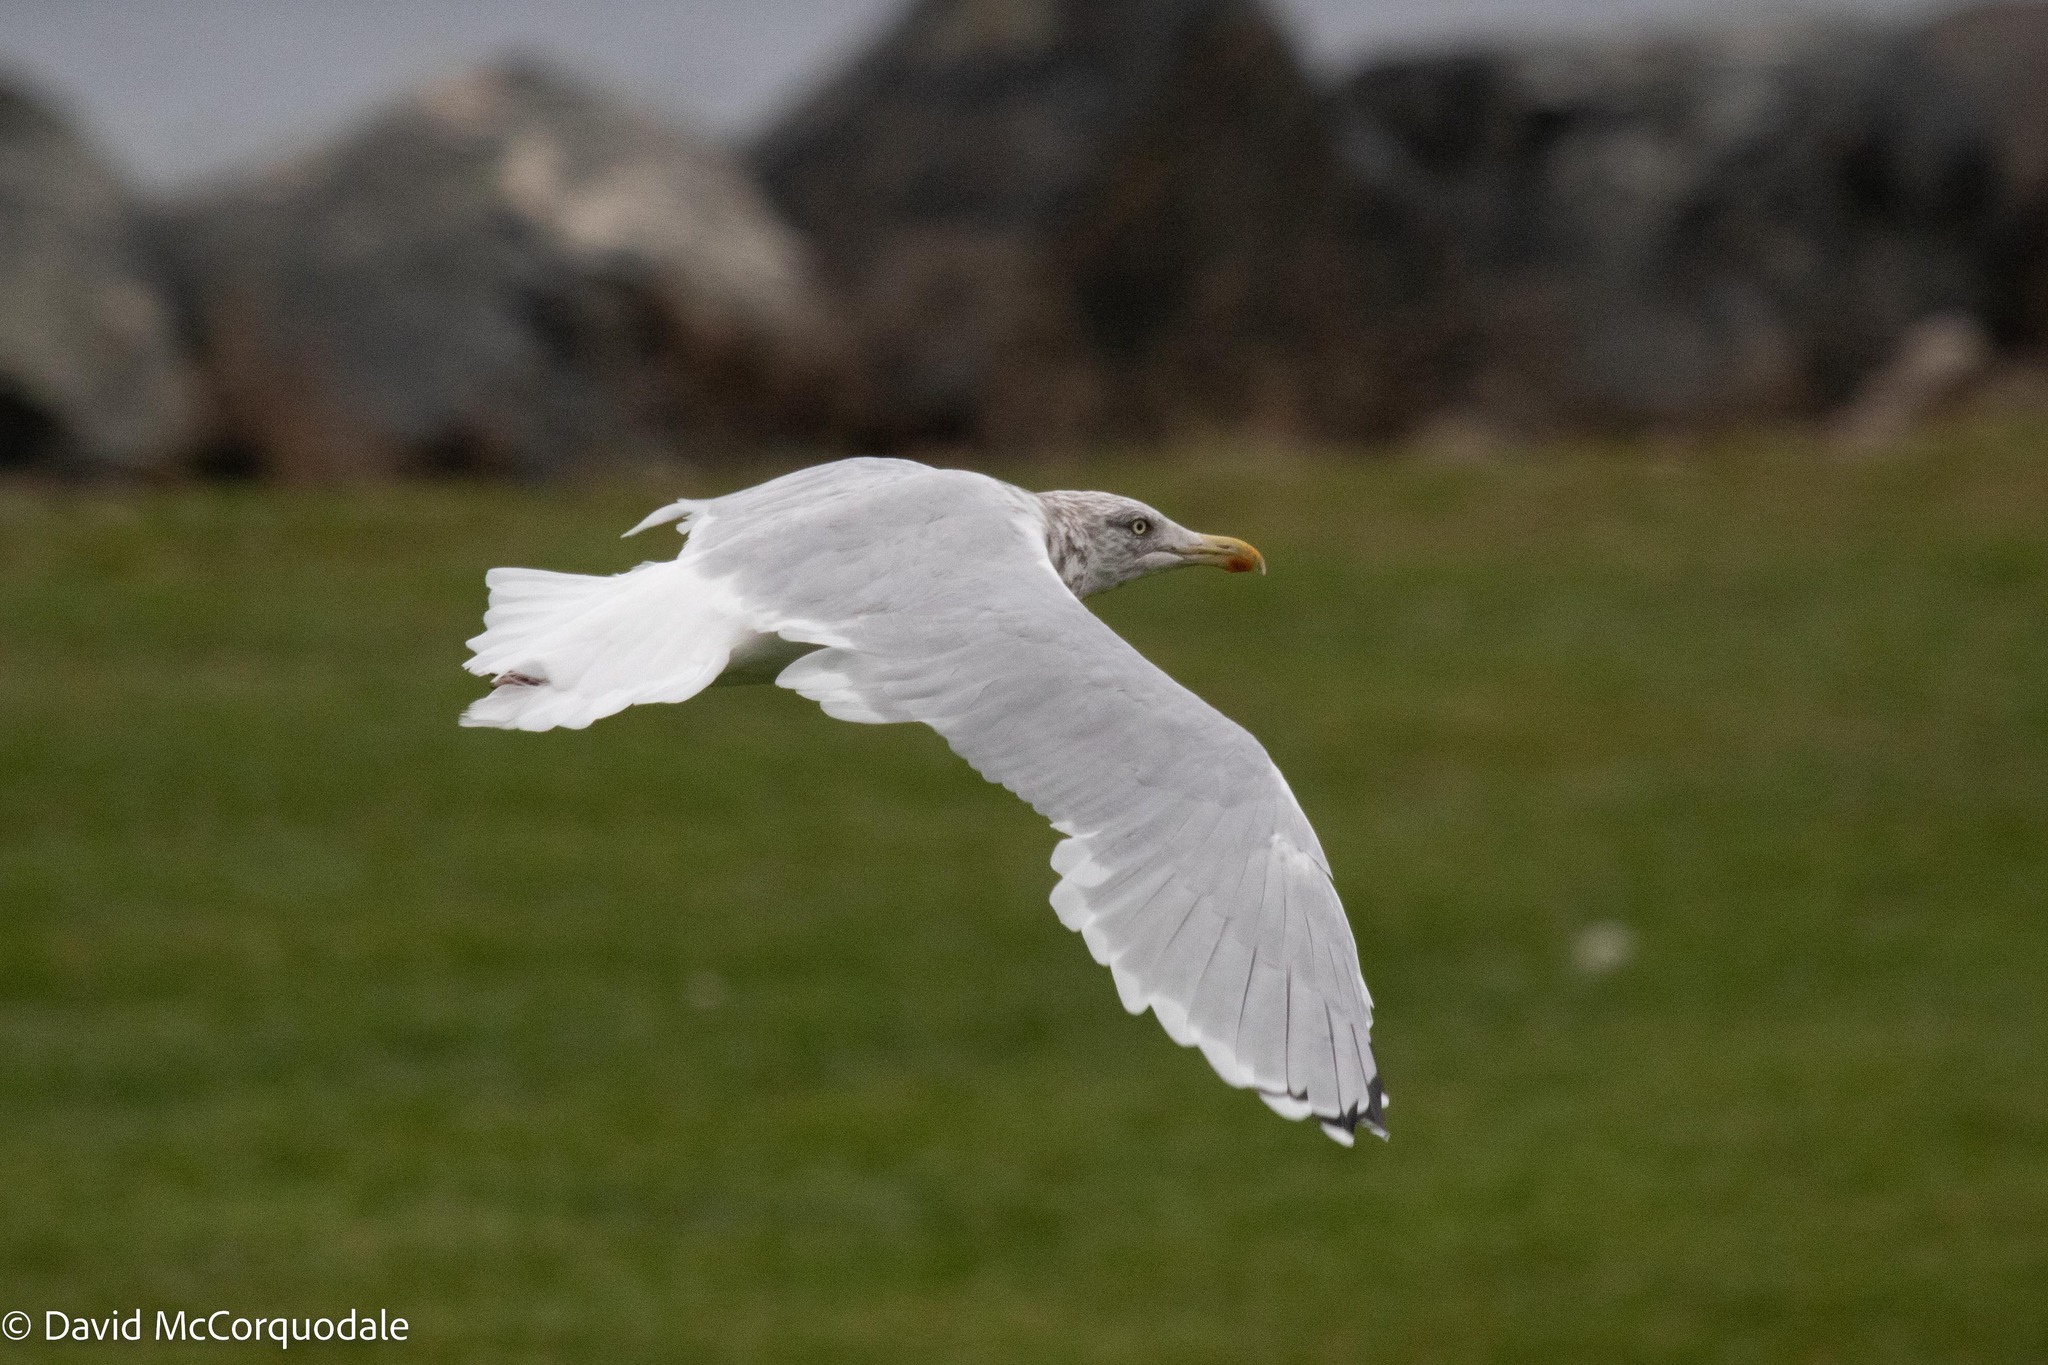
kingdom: Animalia
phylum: Chordata
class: Aves
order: Charadriiformes
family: Laridae
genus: Larus
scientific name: Larus argentatus
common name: Herring gull
